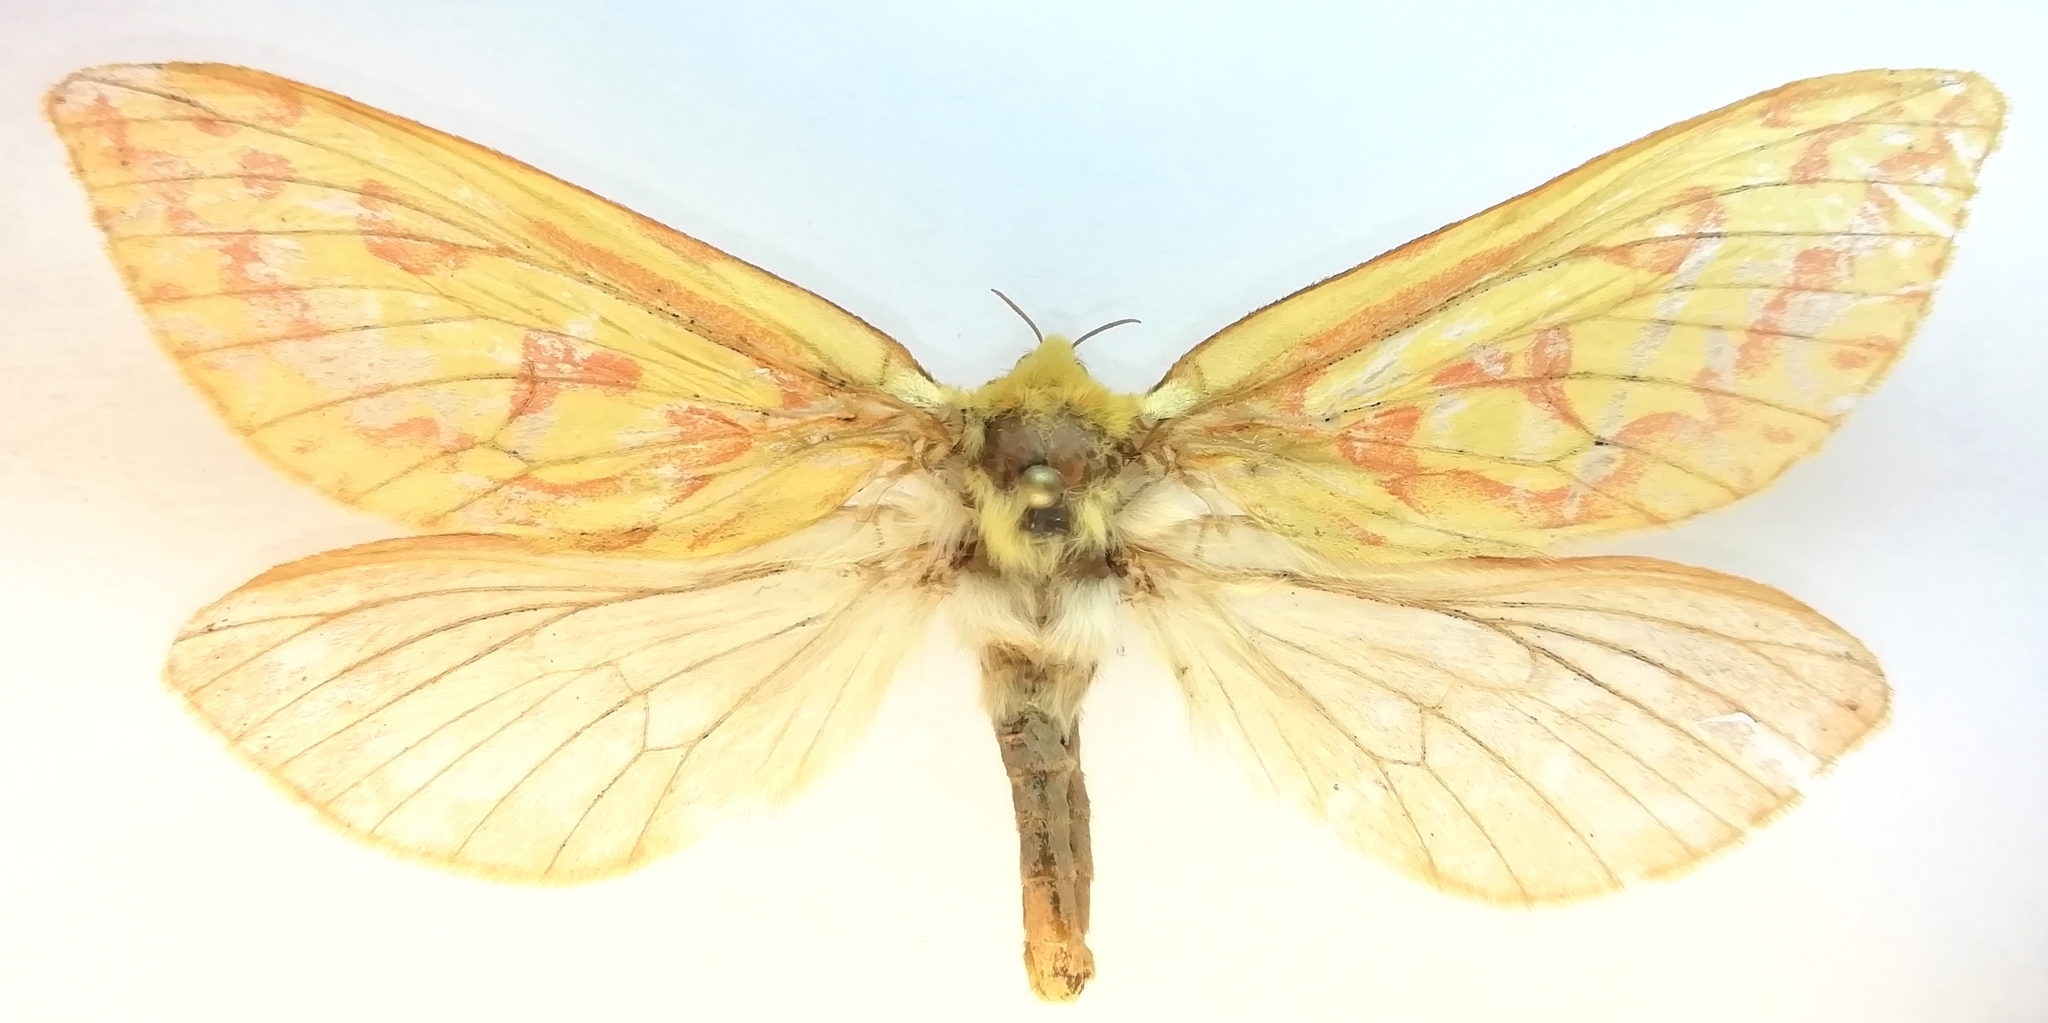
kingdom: Animalia
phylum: Arthropoda
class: Insecta
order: Lepidoptera
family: Hepialidae
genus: Hepialus
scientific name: Hepialus humuli
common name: Ghost moth
